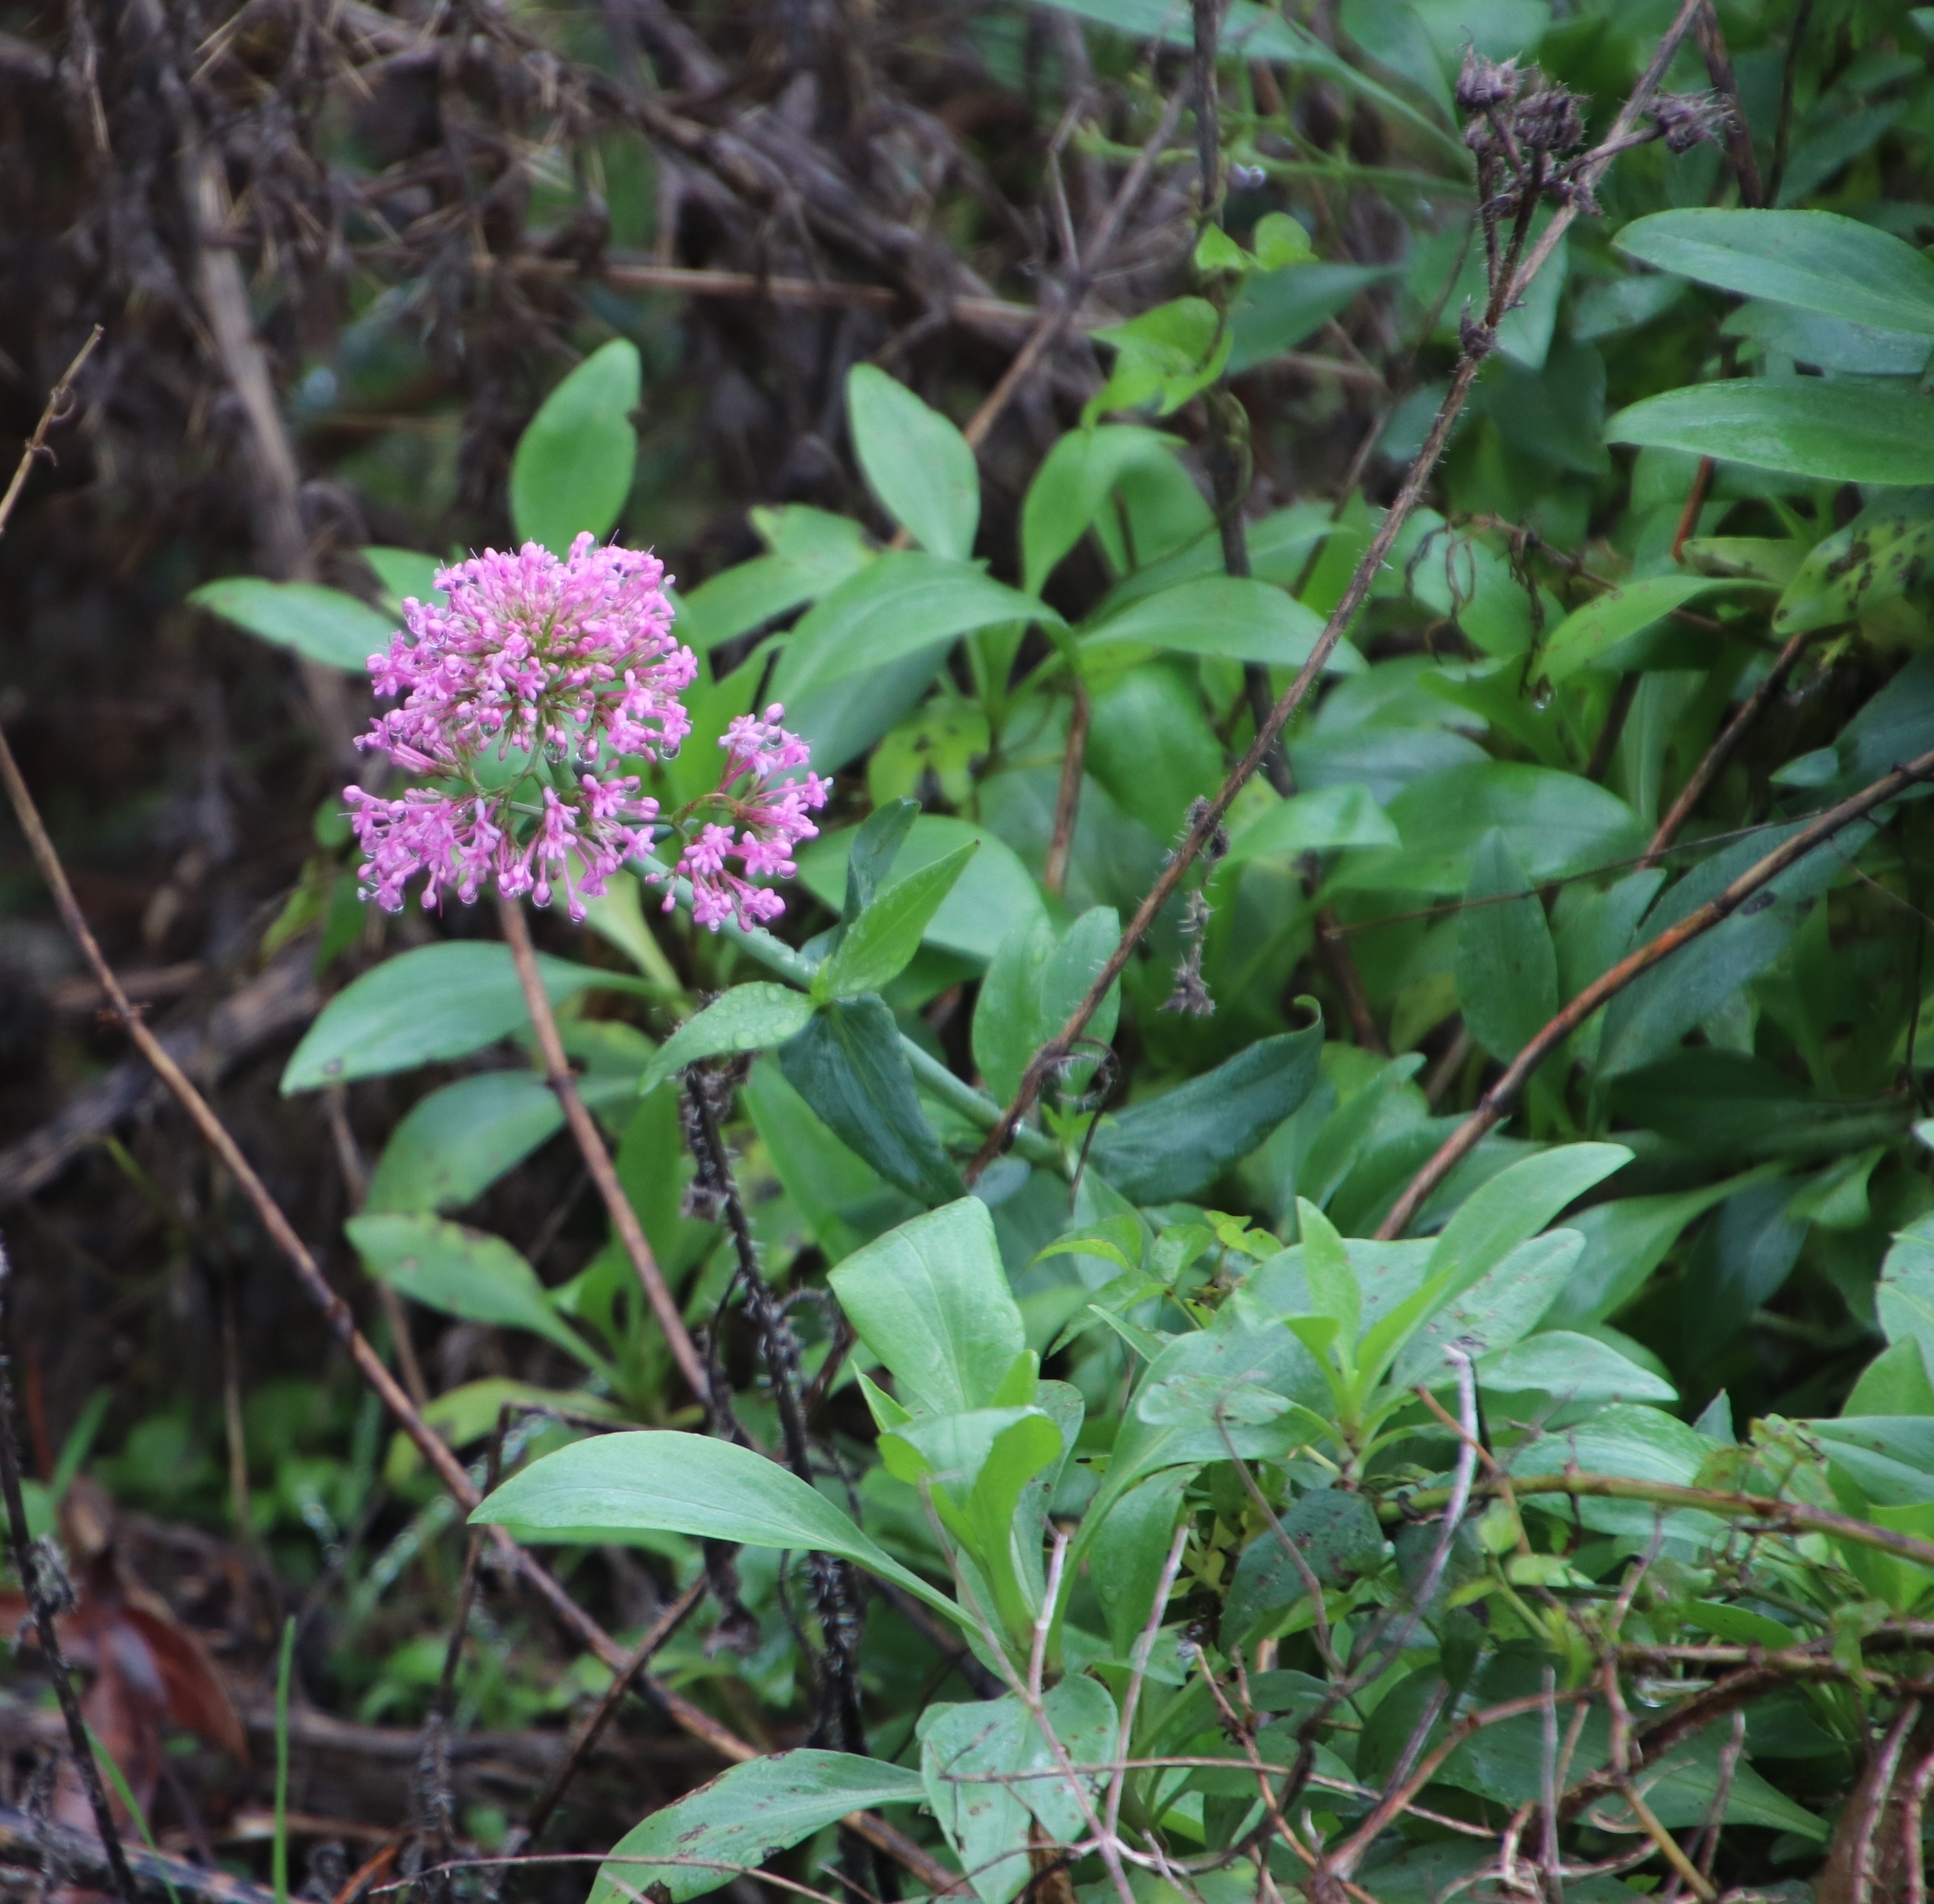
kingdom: Plantae
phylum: Tracheophyta
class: Magnoliopsida
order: Dipsacales
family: Caprifoliaceae
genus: Centranthus
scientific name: Centranthus ruber
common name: Red valerian
